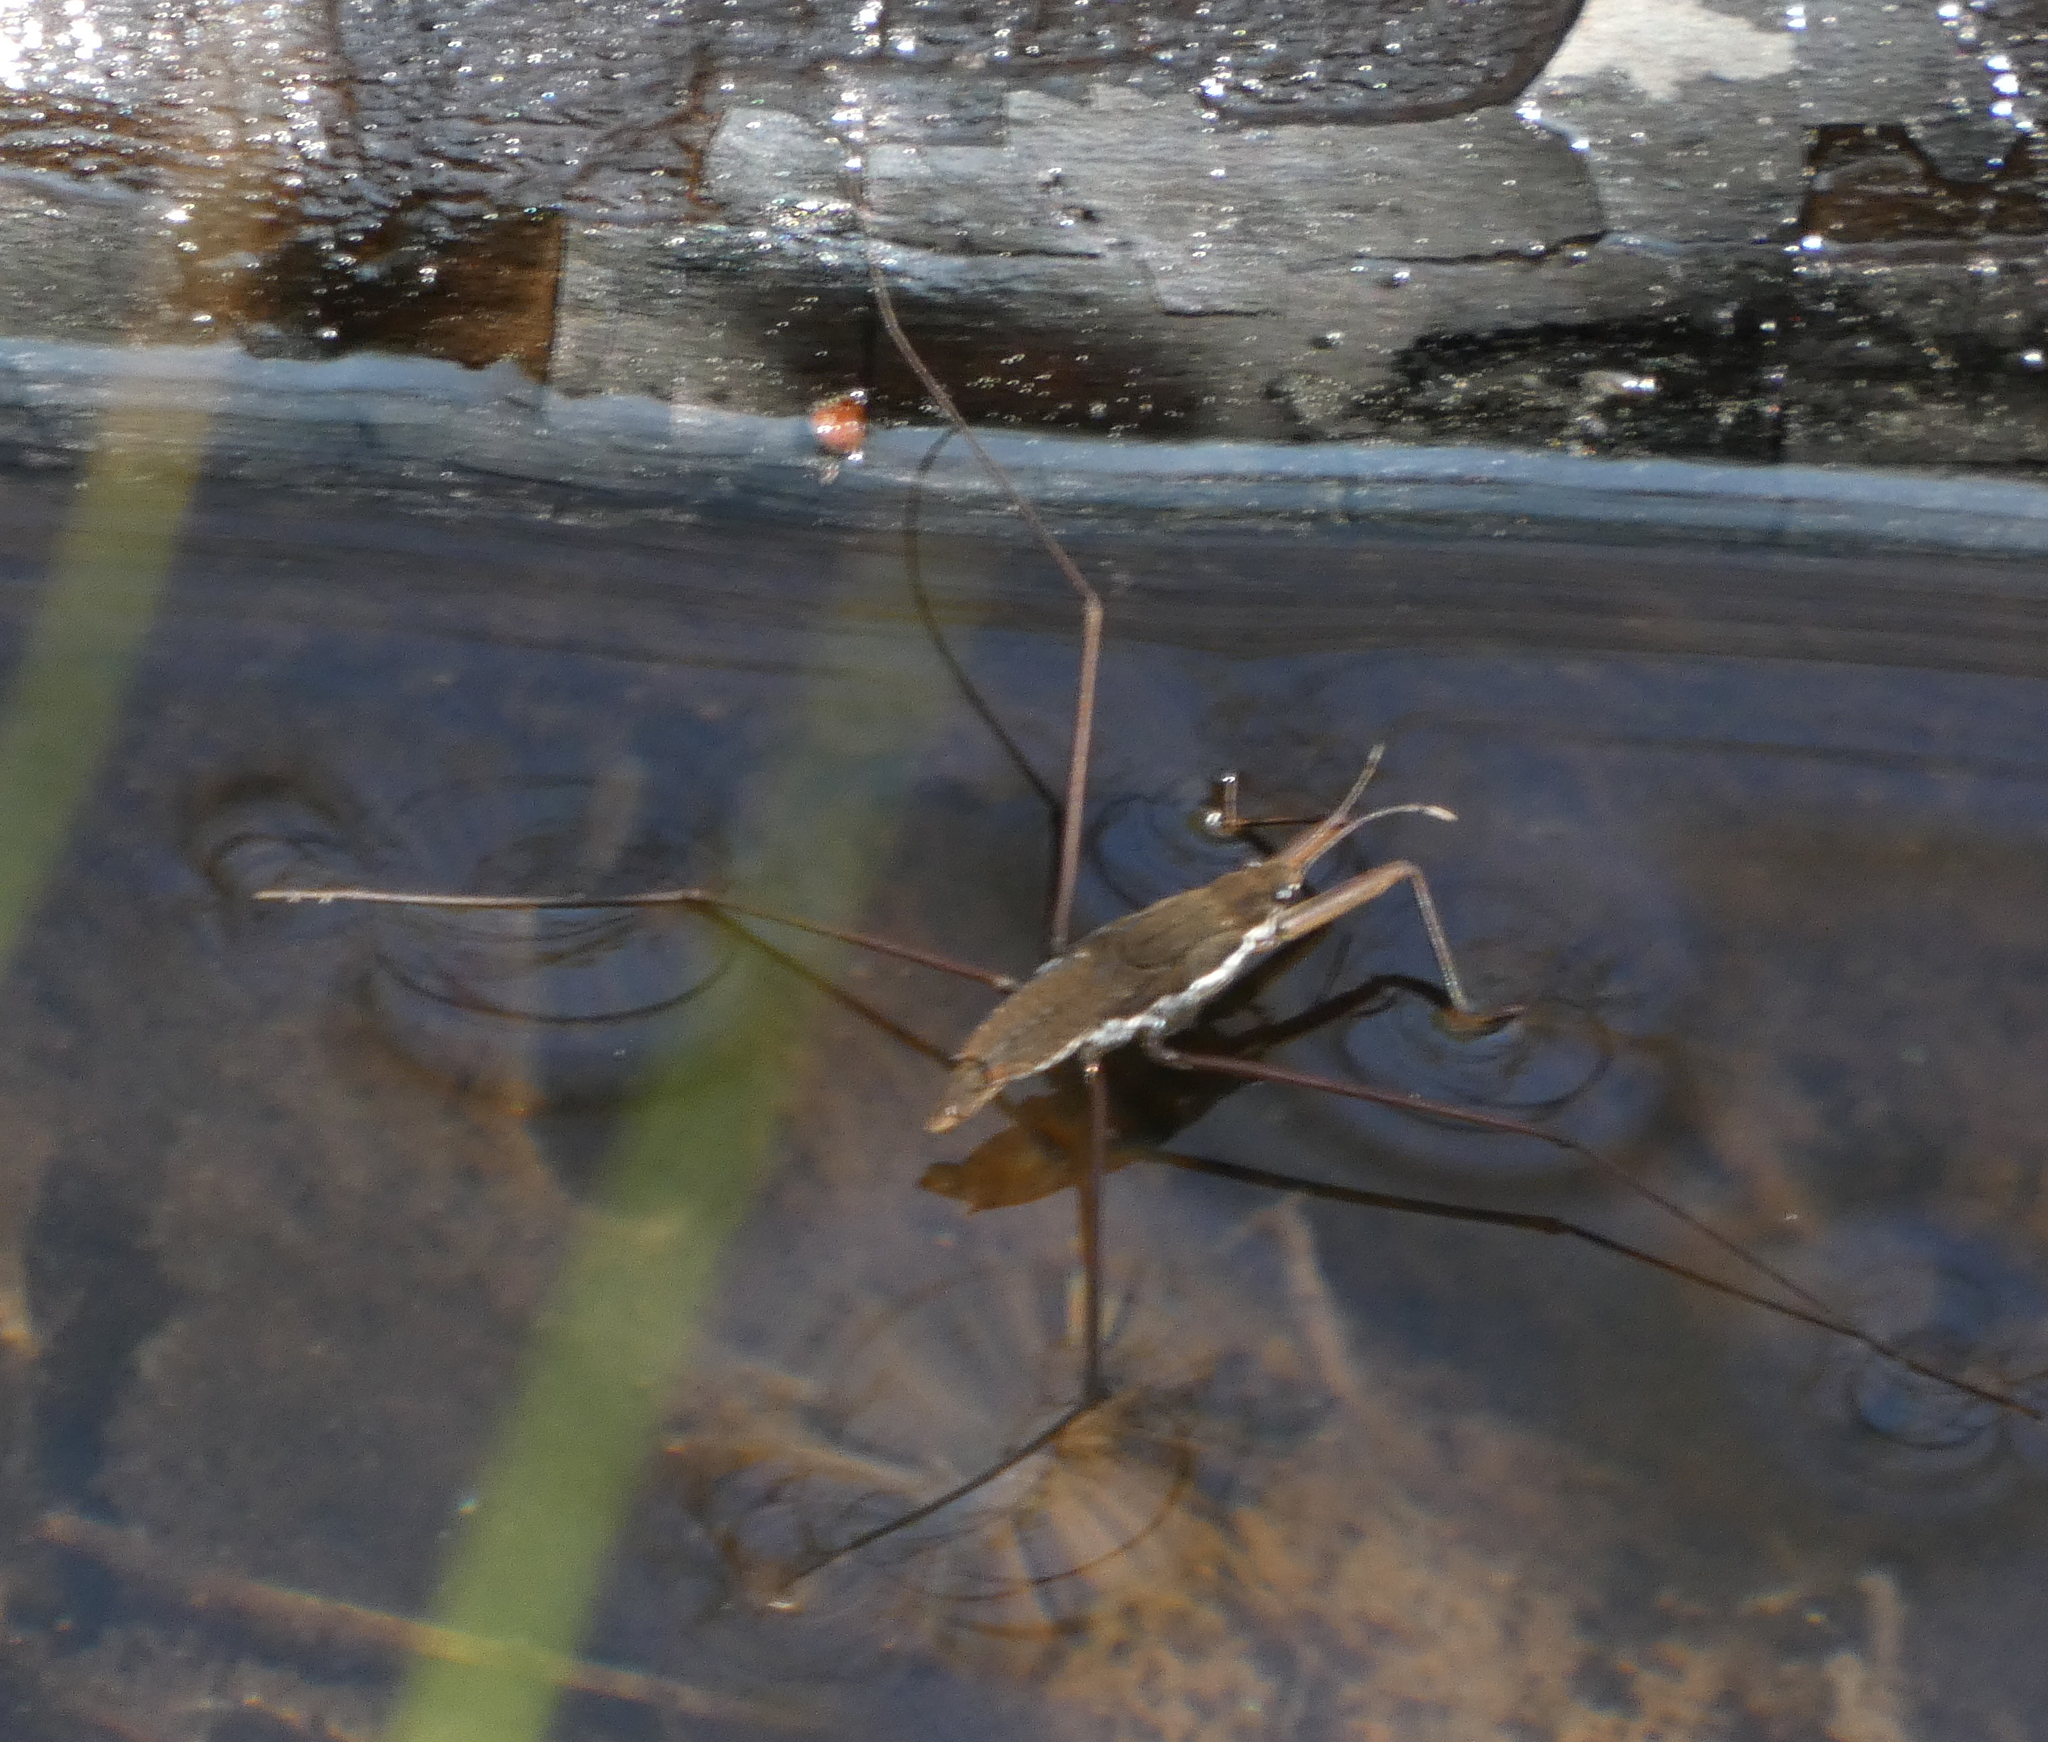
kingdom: Animalia
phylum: Arthropoda
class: Insecta
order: Hemiptera
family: Gerridae
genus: Aquarius
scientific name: Aquarius
